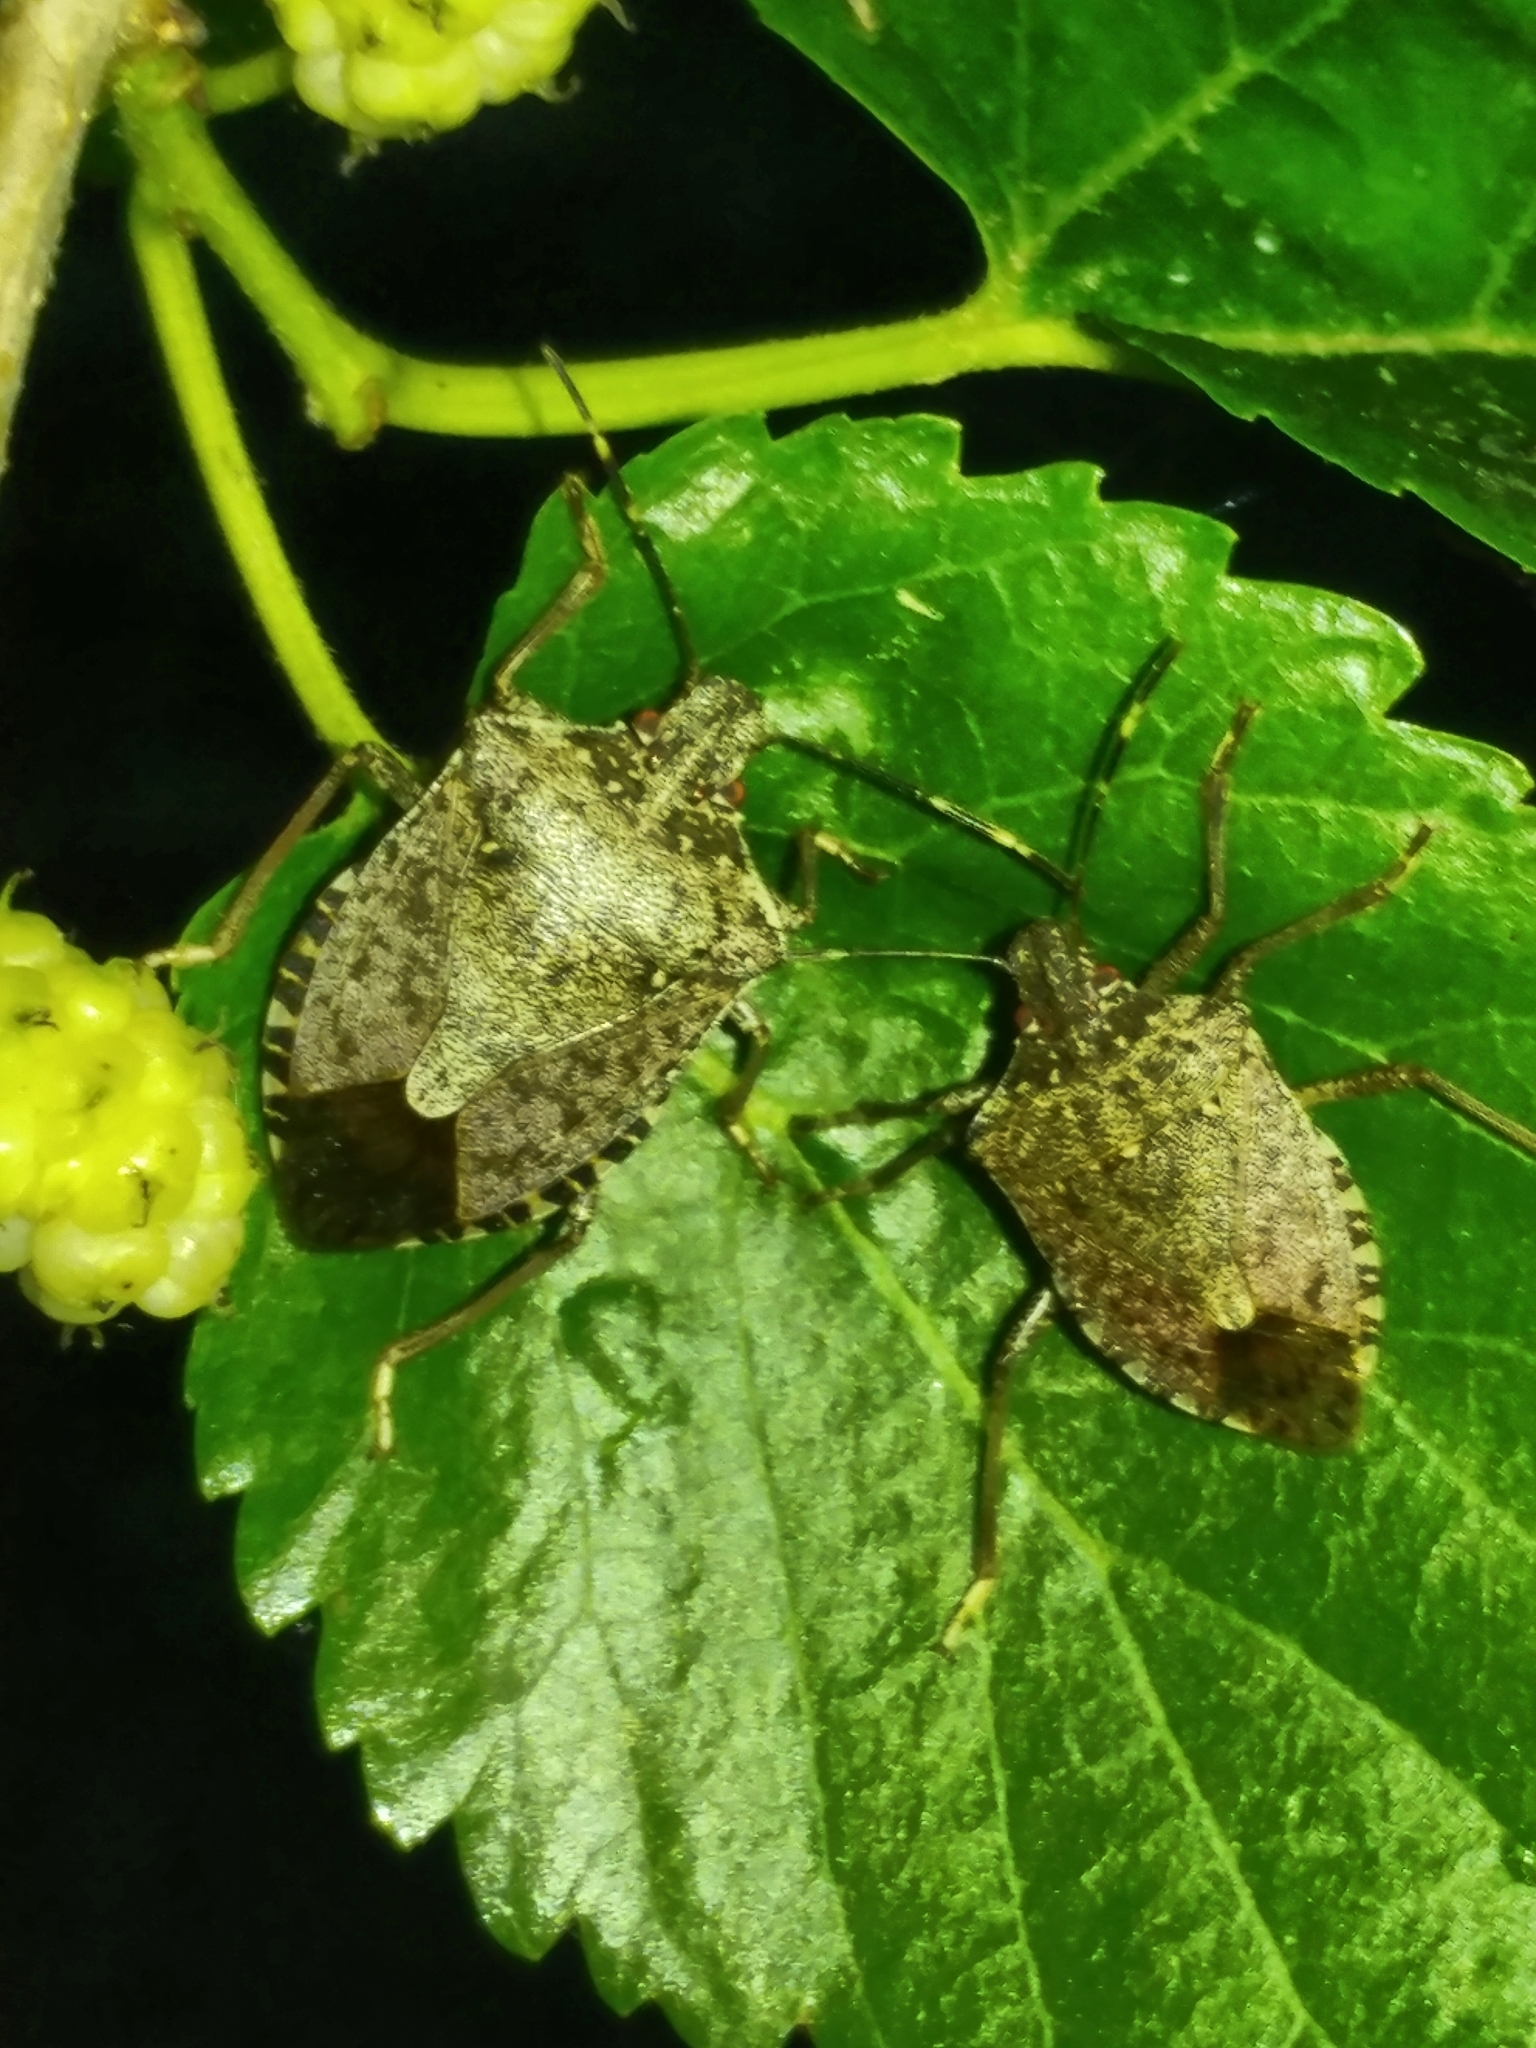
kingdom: Animalia
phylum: Arthropoda
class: Insecta
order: Hemiptera
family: Pentatomidae
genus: Halyomorpha
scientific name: Halyomorpha halys
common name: Brown marmorated stink bug
